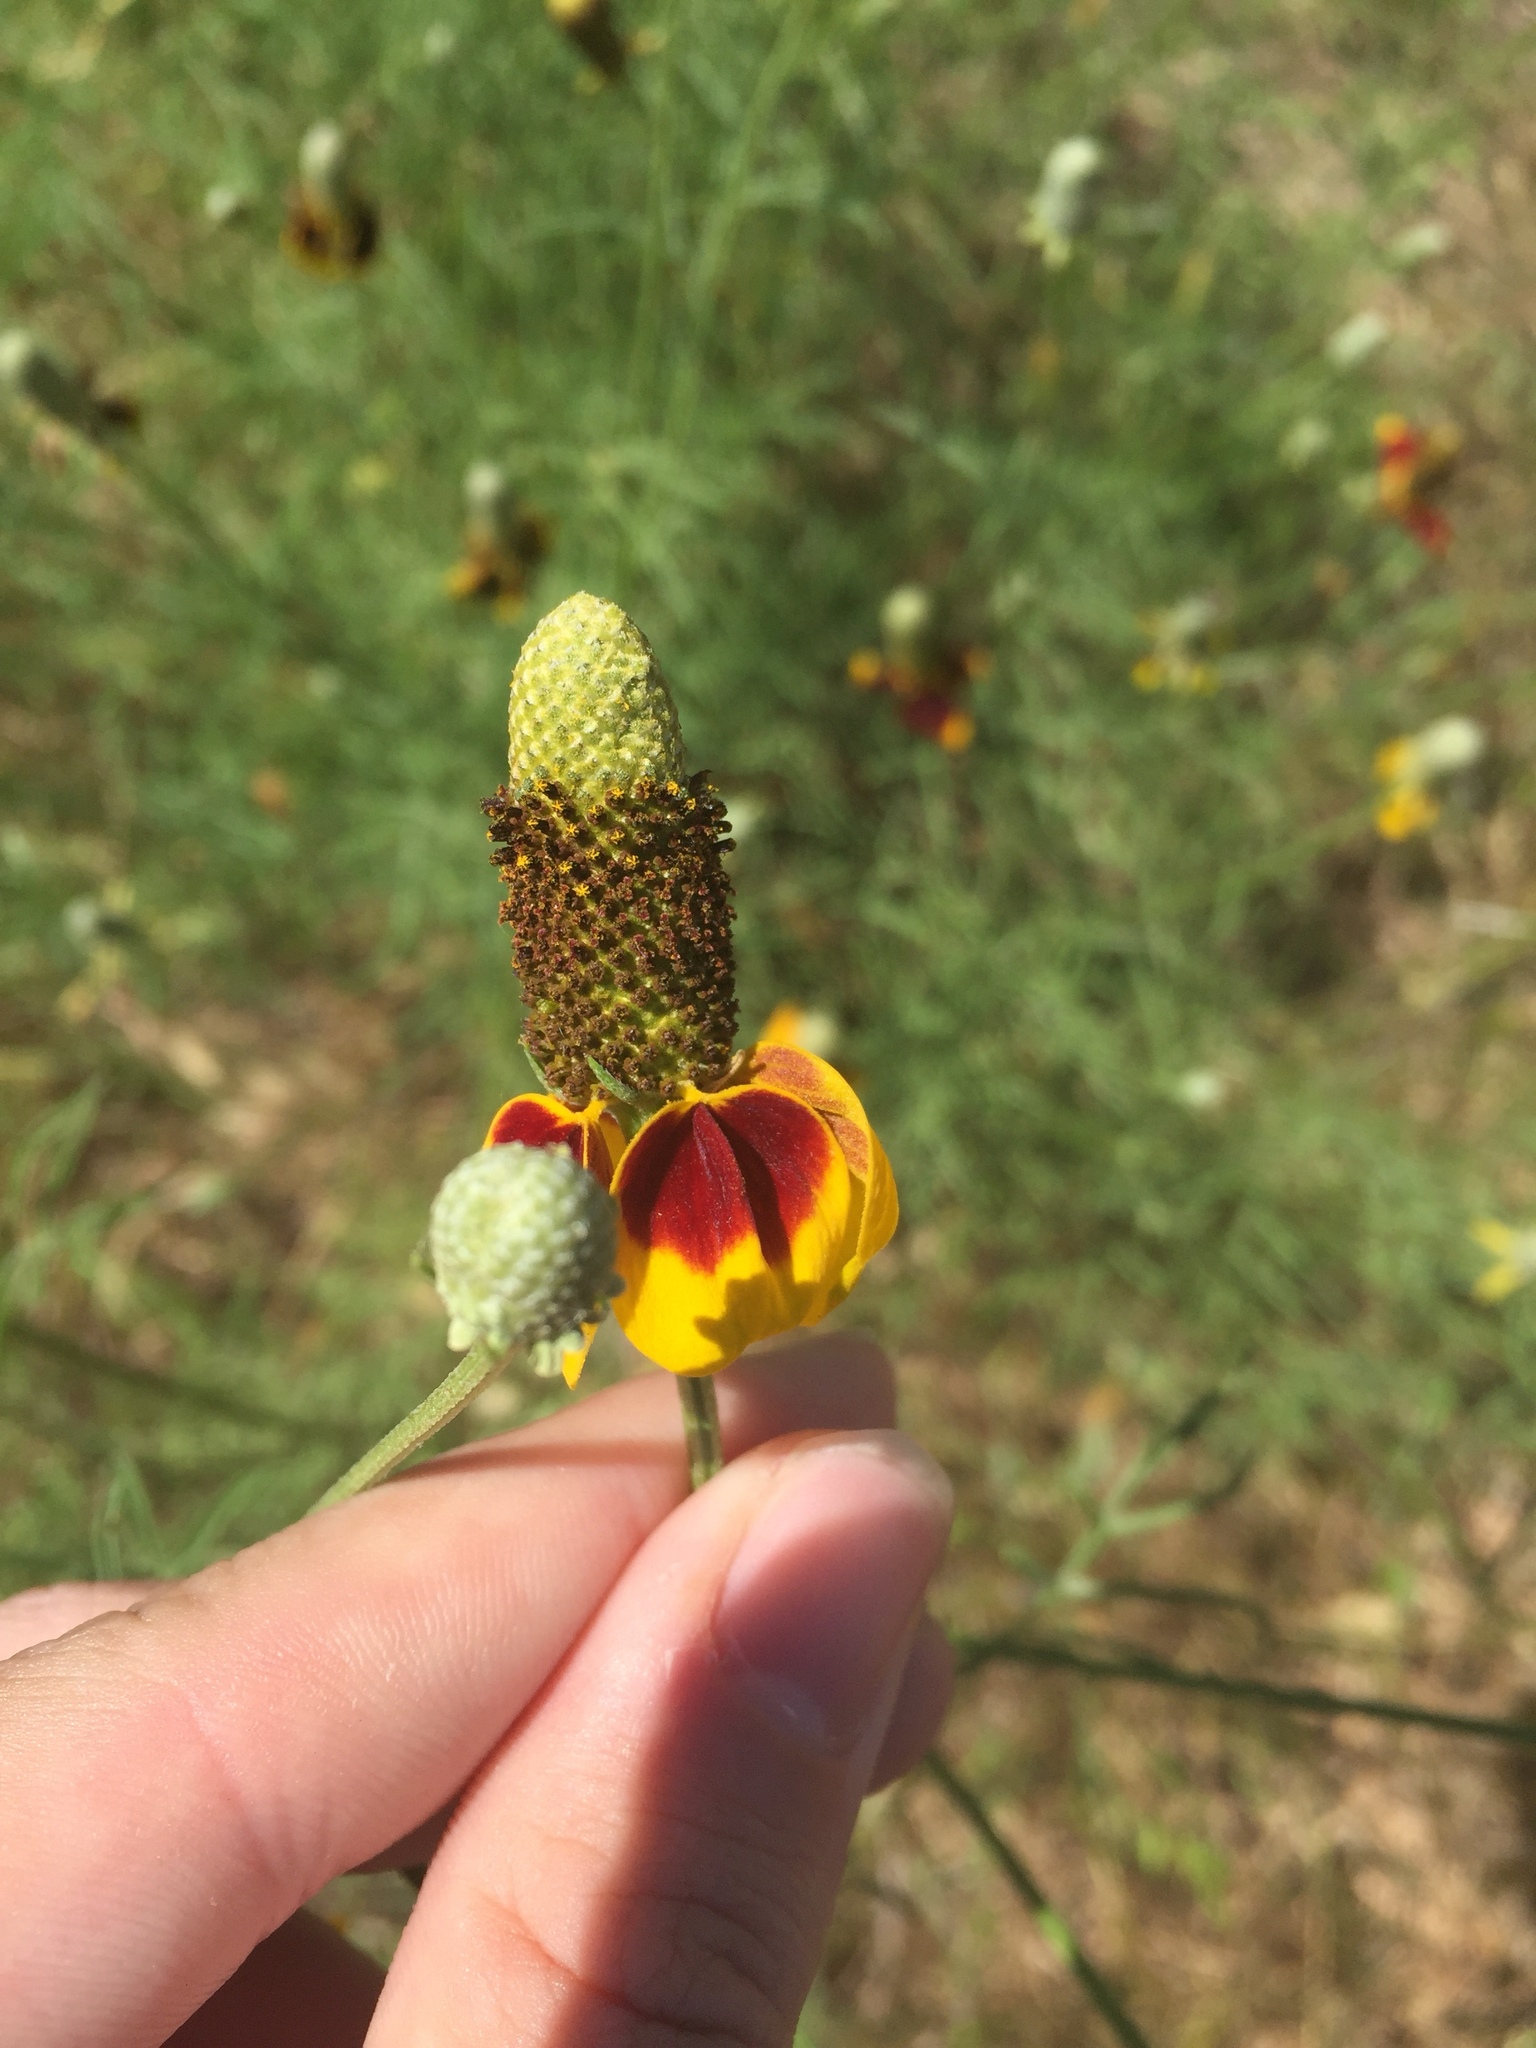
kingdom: Plantae
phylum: Tracheophyta
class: Magnoliopsida
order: Asterales
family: Asteraceae
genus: Ratibida
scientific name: Ratibida columnifera
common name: Prairie coneflower
